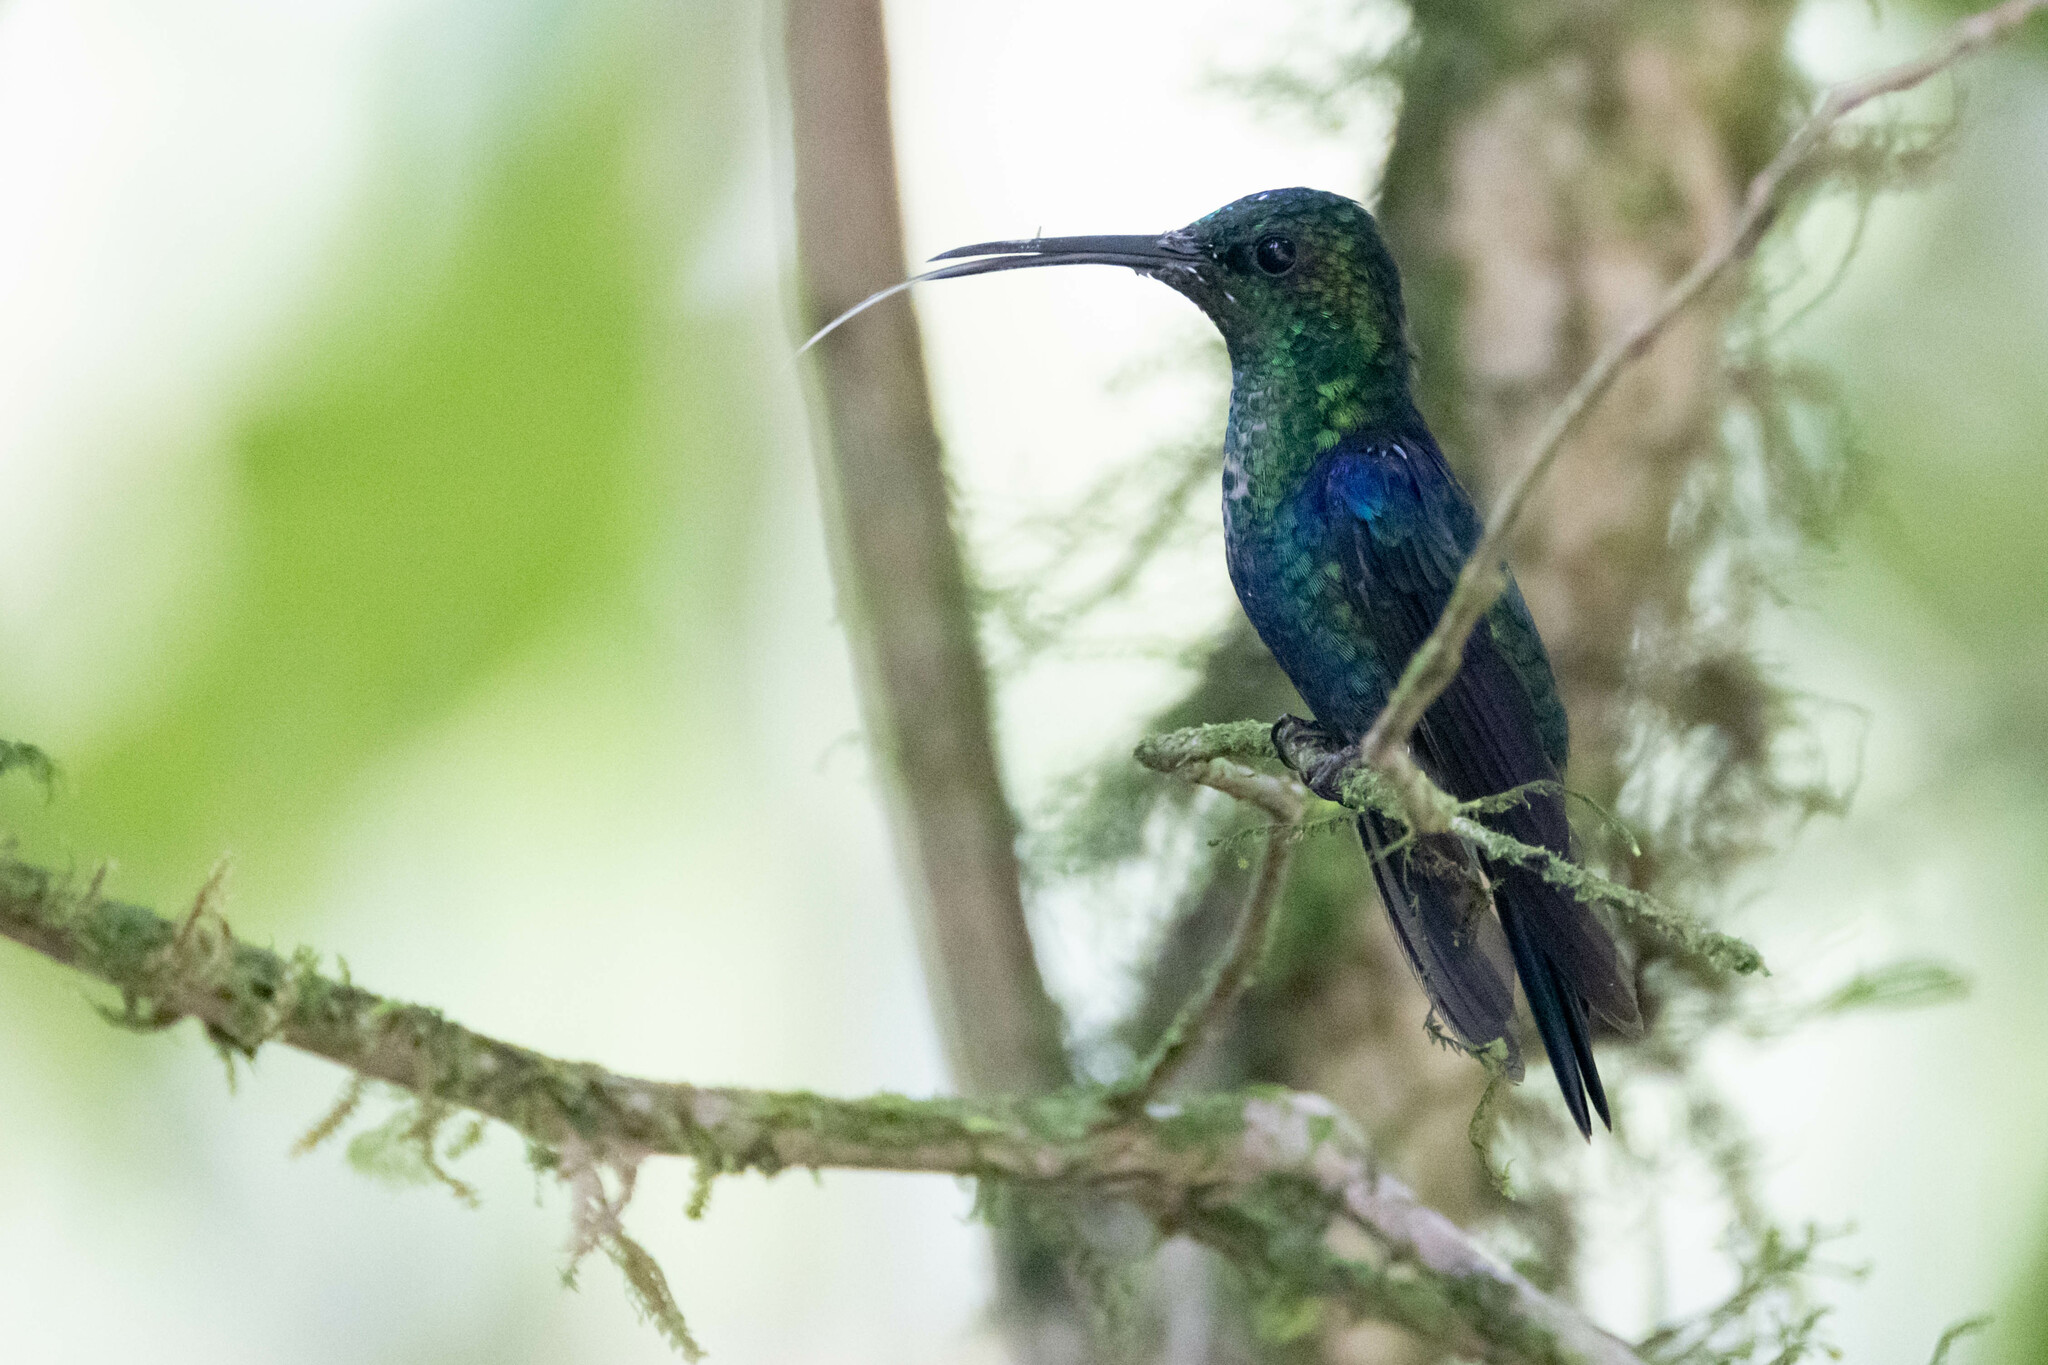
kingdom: Animalia
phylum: Chordata
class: Aves
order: Apodiformes
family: Trochilidae
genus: Thalurania
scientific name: Thalurania colombica
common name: Crowned woodnymph
